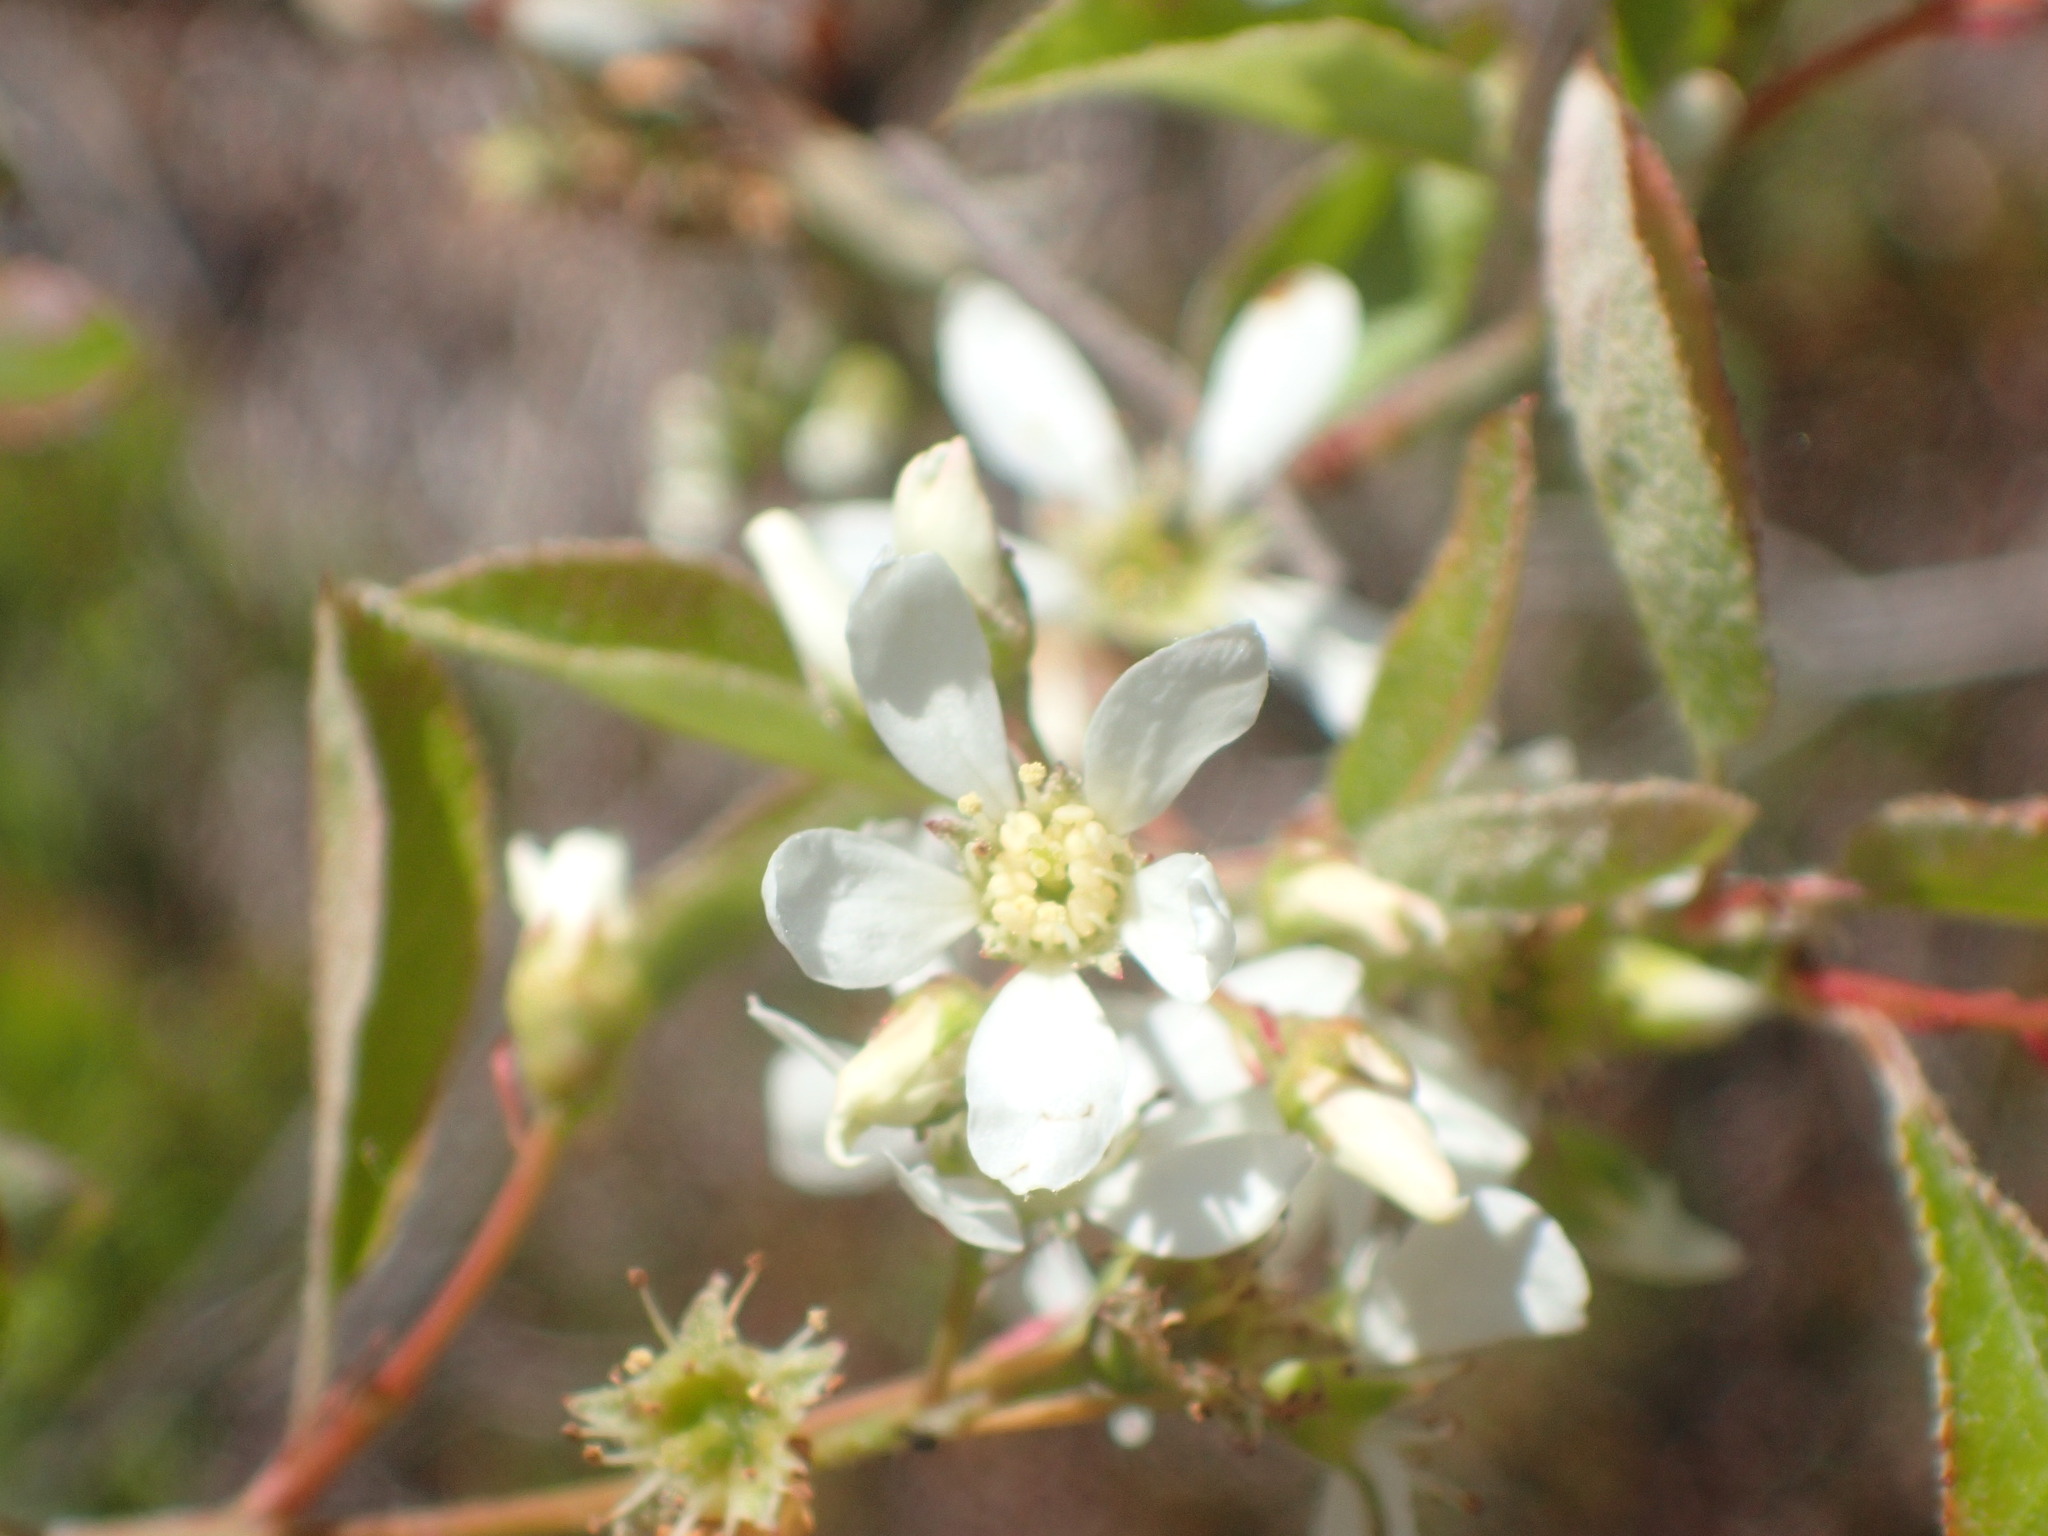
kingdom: Plantae
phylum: Tracheophyta
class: Magnoliopsida
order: Rosales
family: Rosaceae
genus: Amelanchier
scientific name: Amelanchier stolonifera
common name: Running serviceberry
